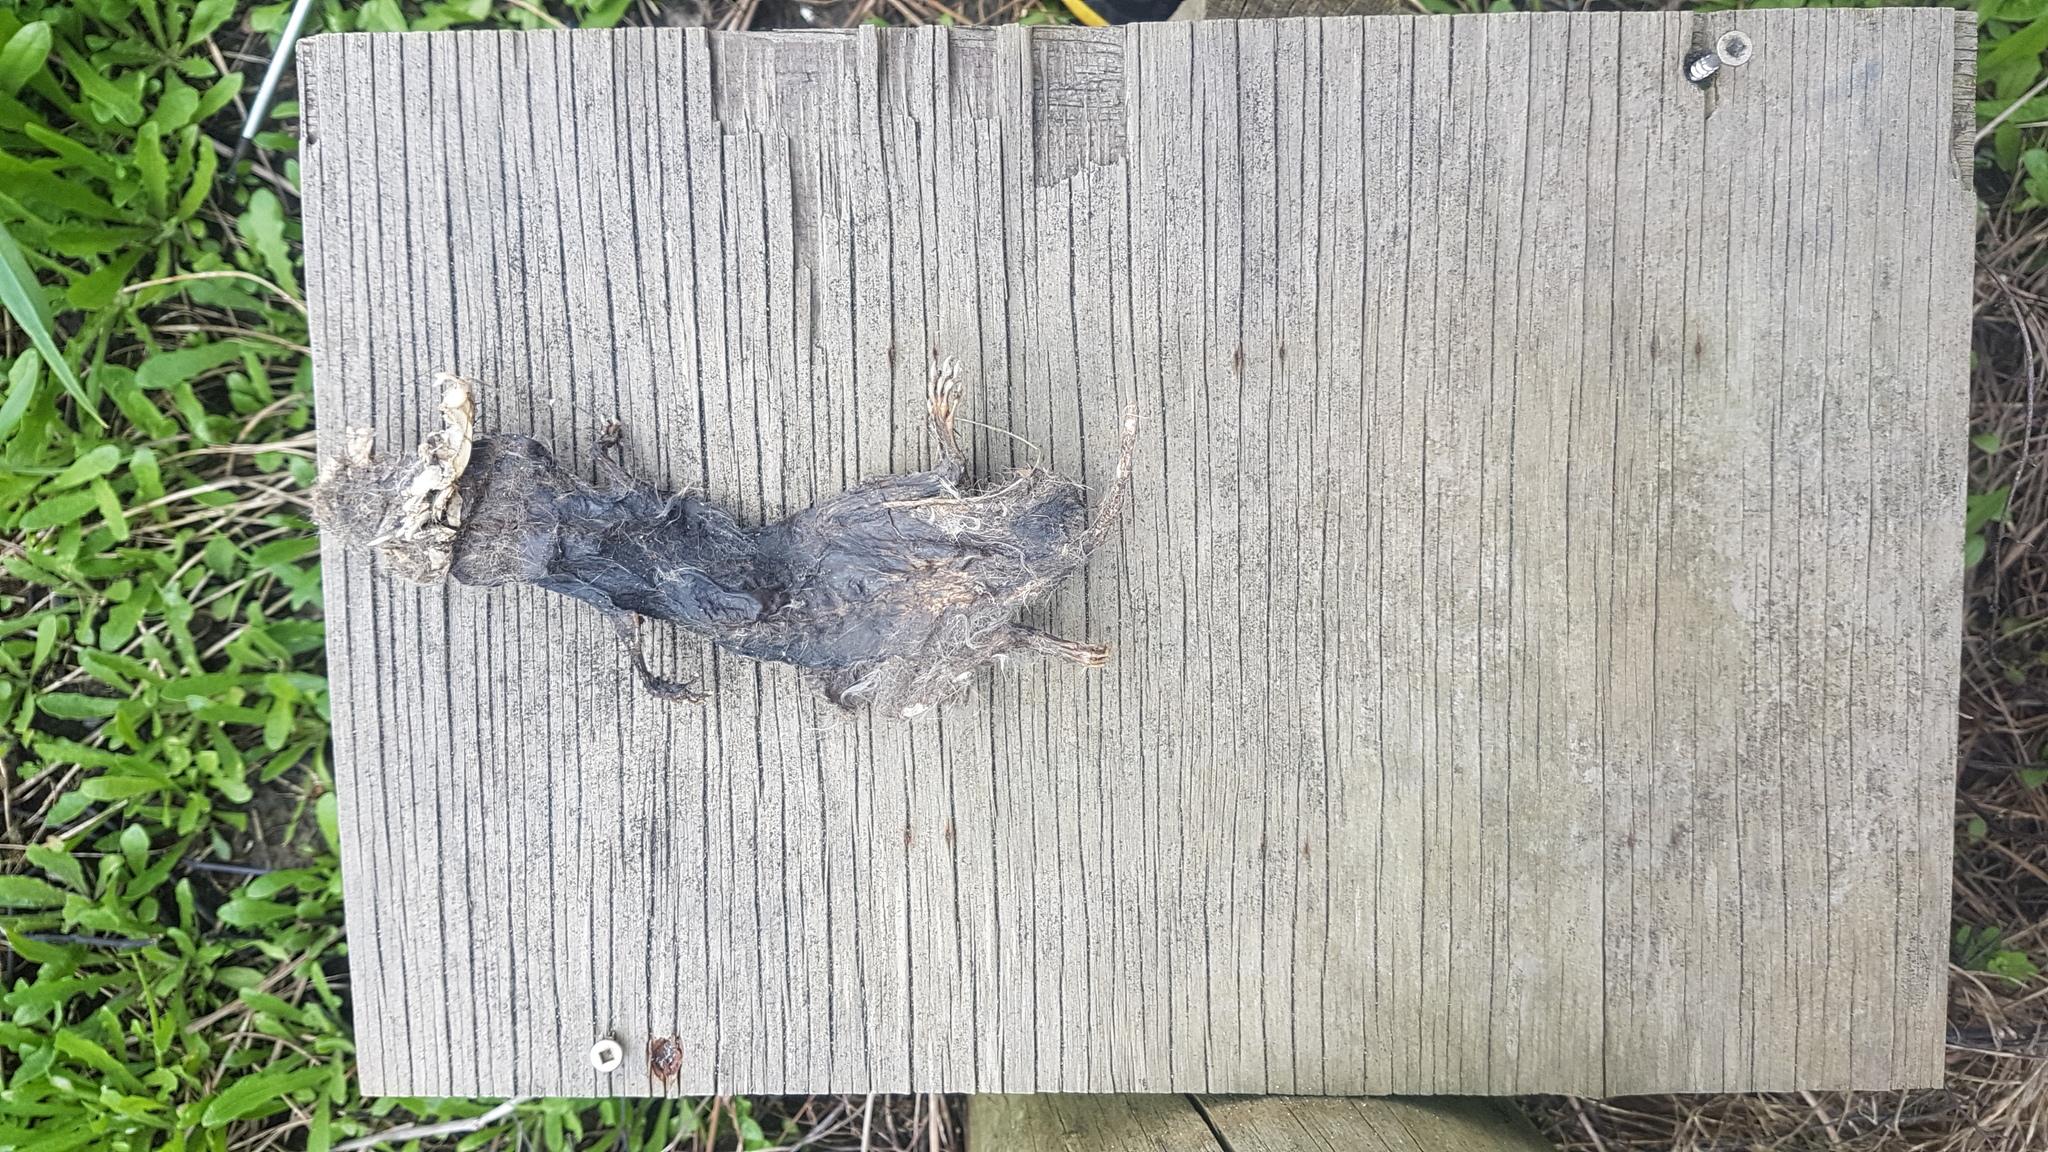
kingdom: Animalia
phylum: Chordata
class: Mammalia
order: Carnivora
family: Mustelidae
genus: Mustela
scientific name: Mustela nivalis
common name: Least weasel
